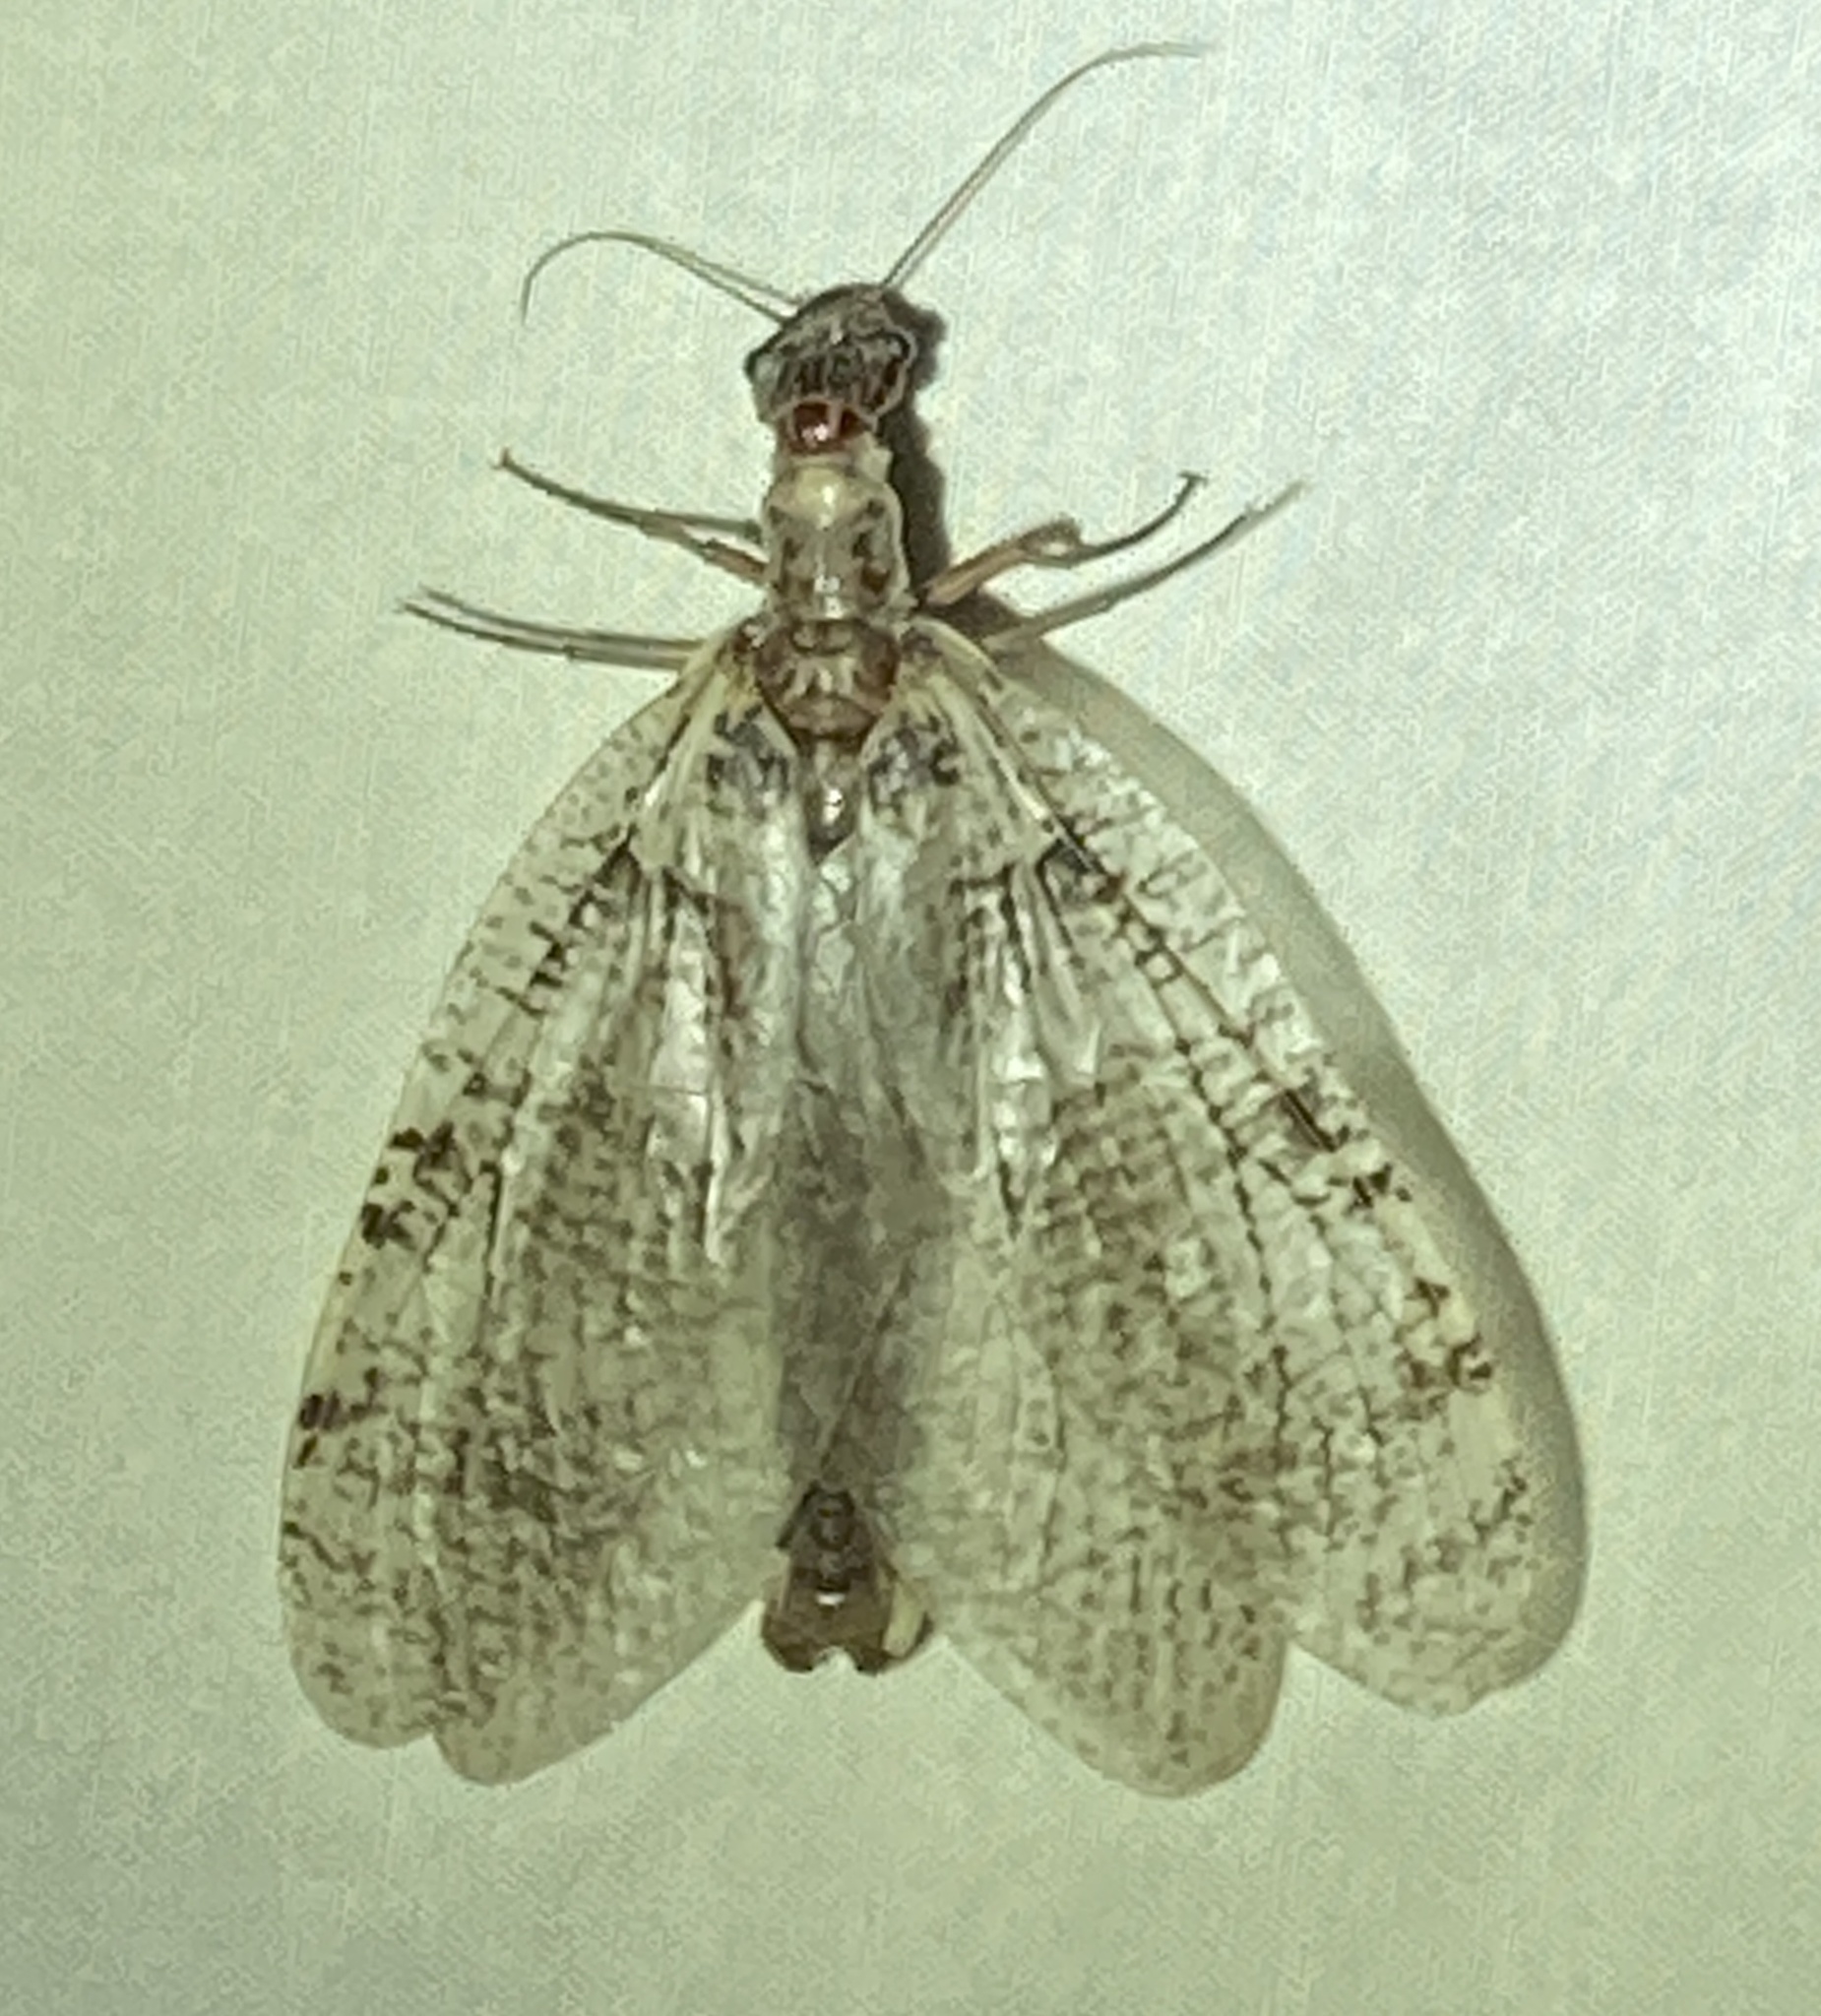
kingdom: Animalia
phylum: Arthropoda
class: Insecta
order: Megaloptera
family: Corydalidae
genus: Orohermes
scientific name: Orohermes crepusculus
